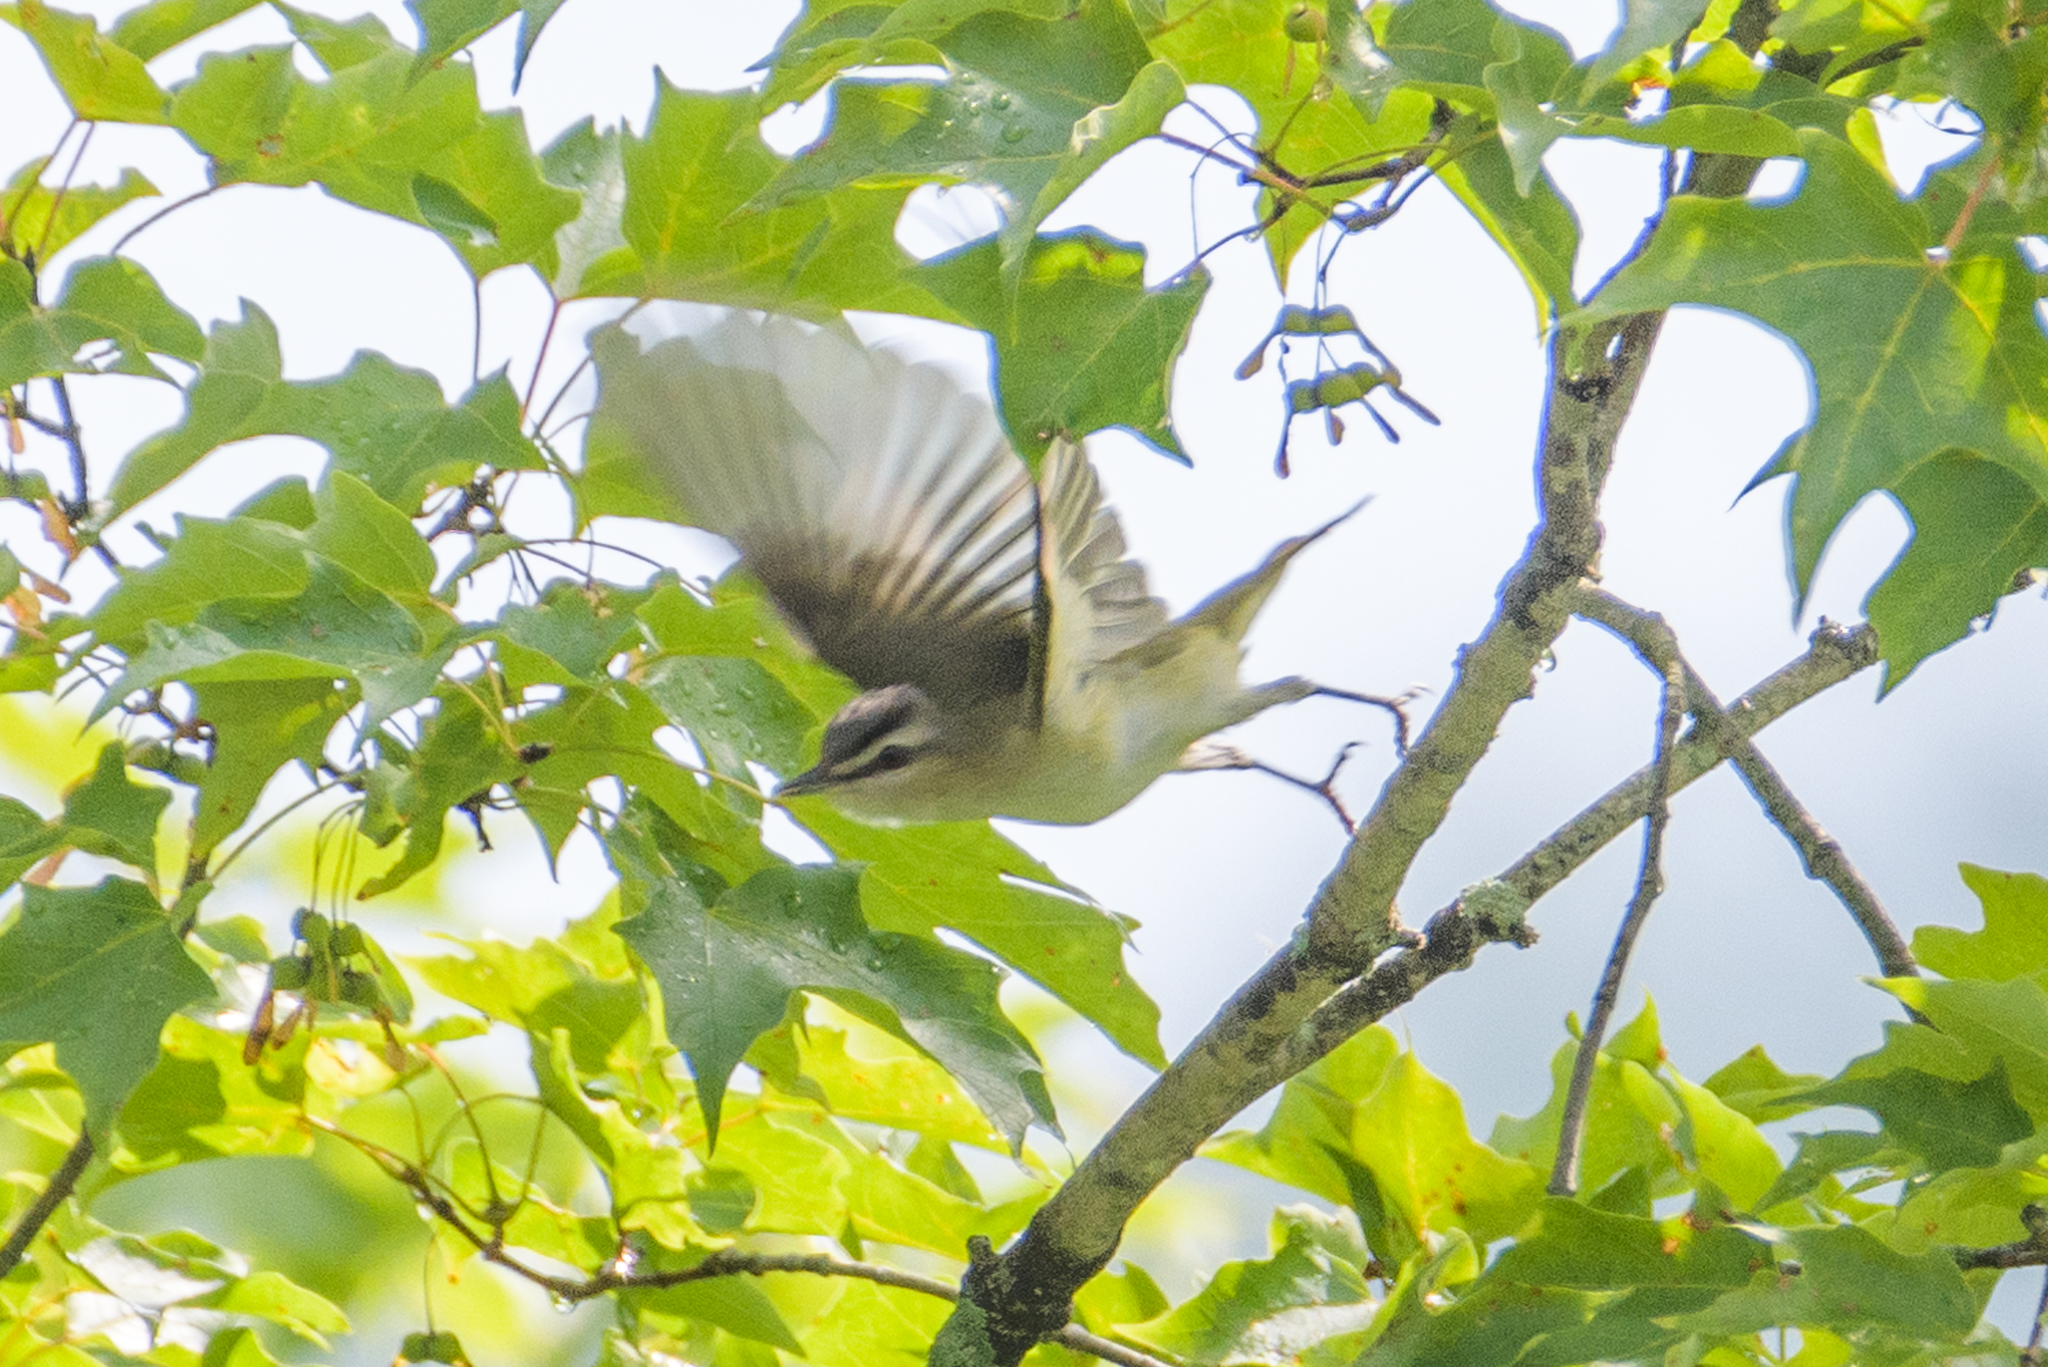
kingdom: Animalia
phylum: Chordata
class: Aves
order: Passeriformes
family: Vireonidae
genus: Vireo
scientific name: Vireo olivaceus
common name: Red-eyed vireo
